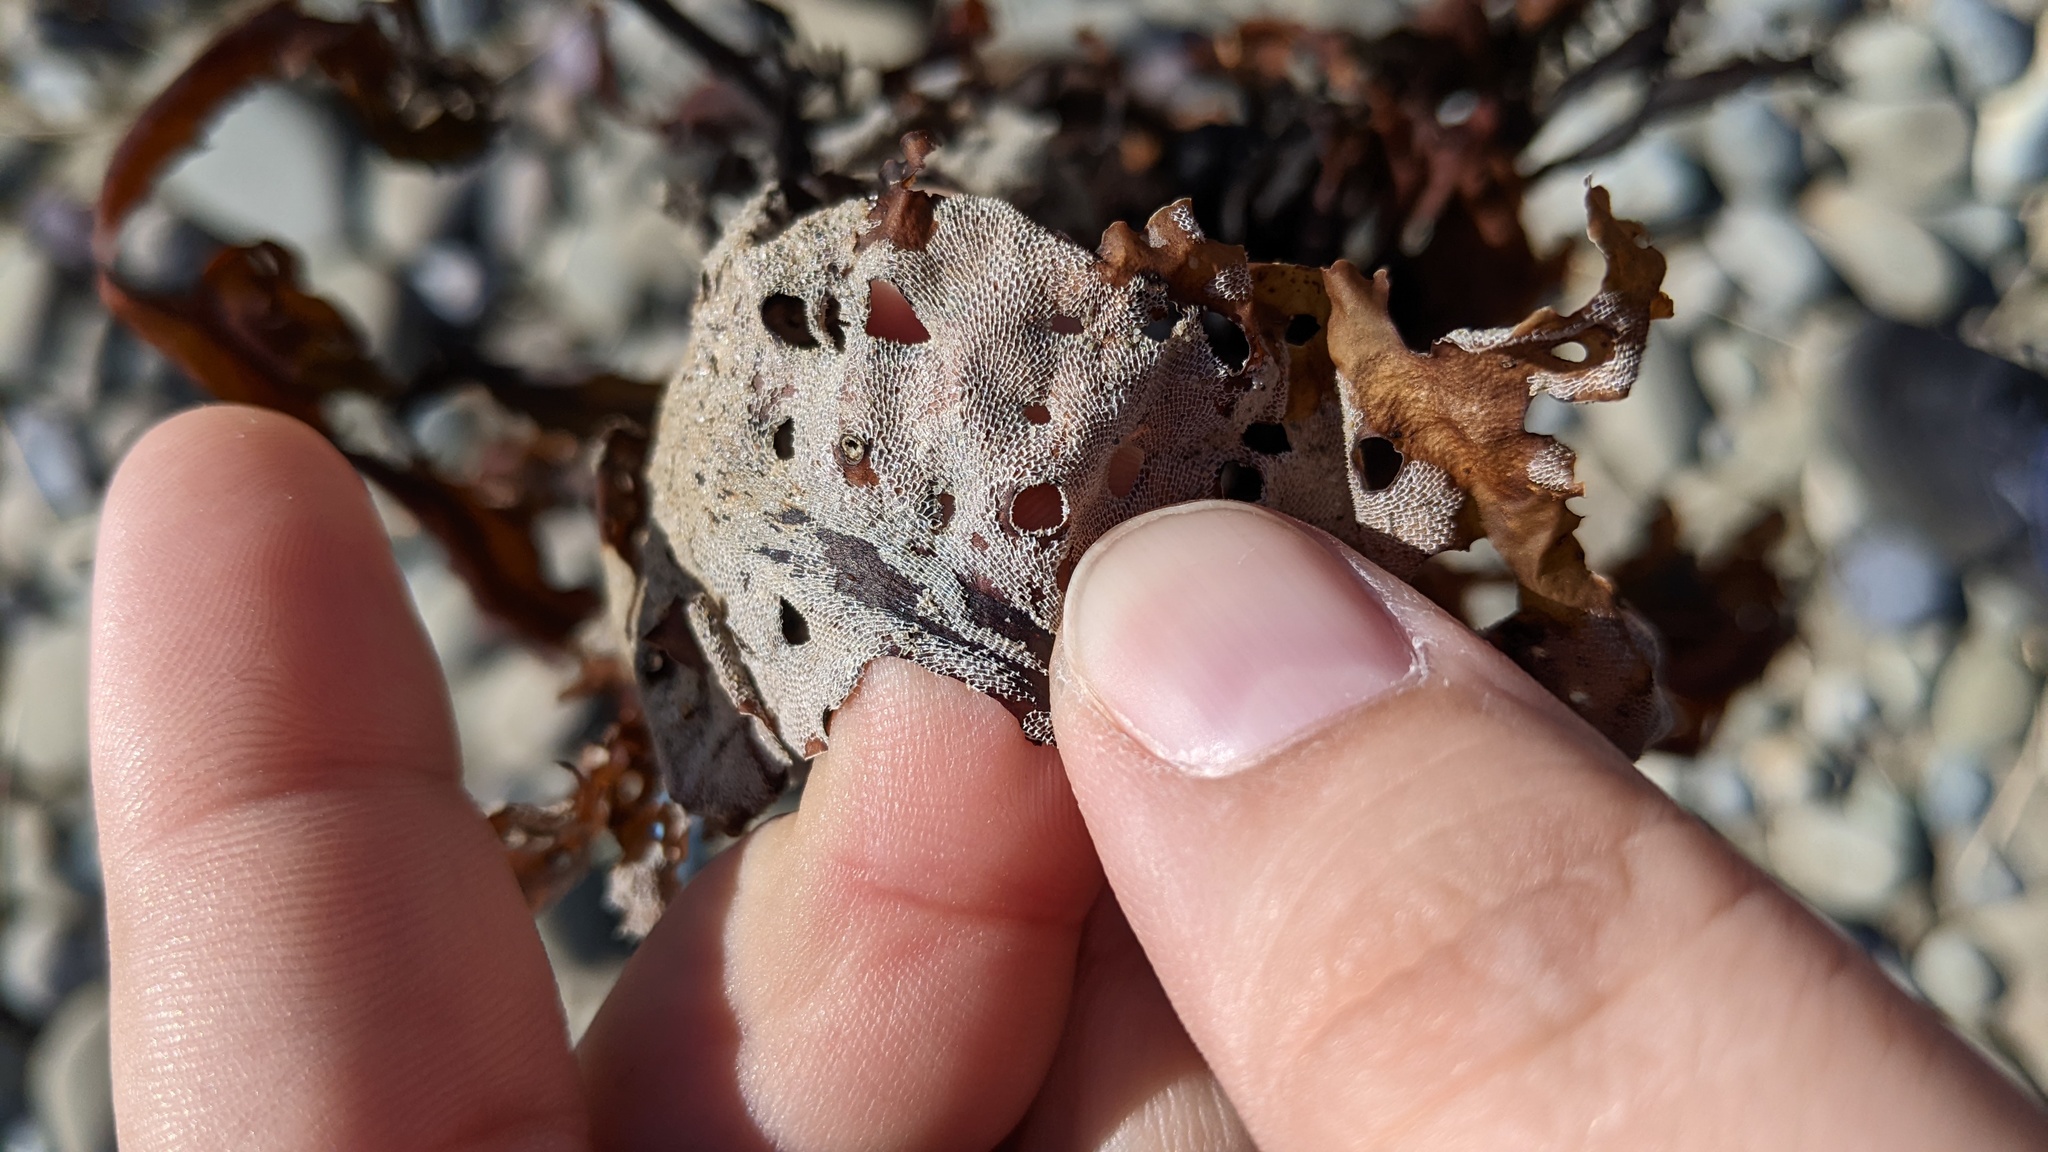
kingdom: Animalia
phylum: Bryozoa
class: Gymnolaemata
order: Cheilostomatida
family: Membraniporidae
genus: Membranipora
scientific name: Membranipora membranacea
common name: Sea mat
